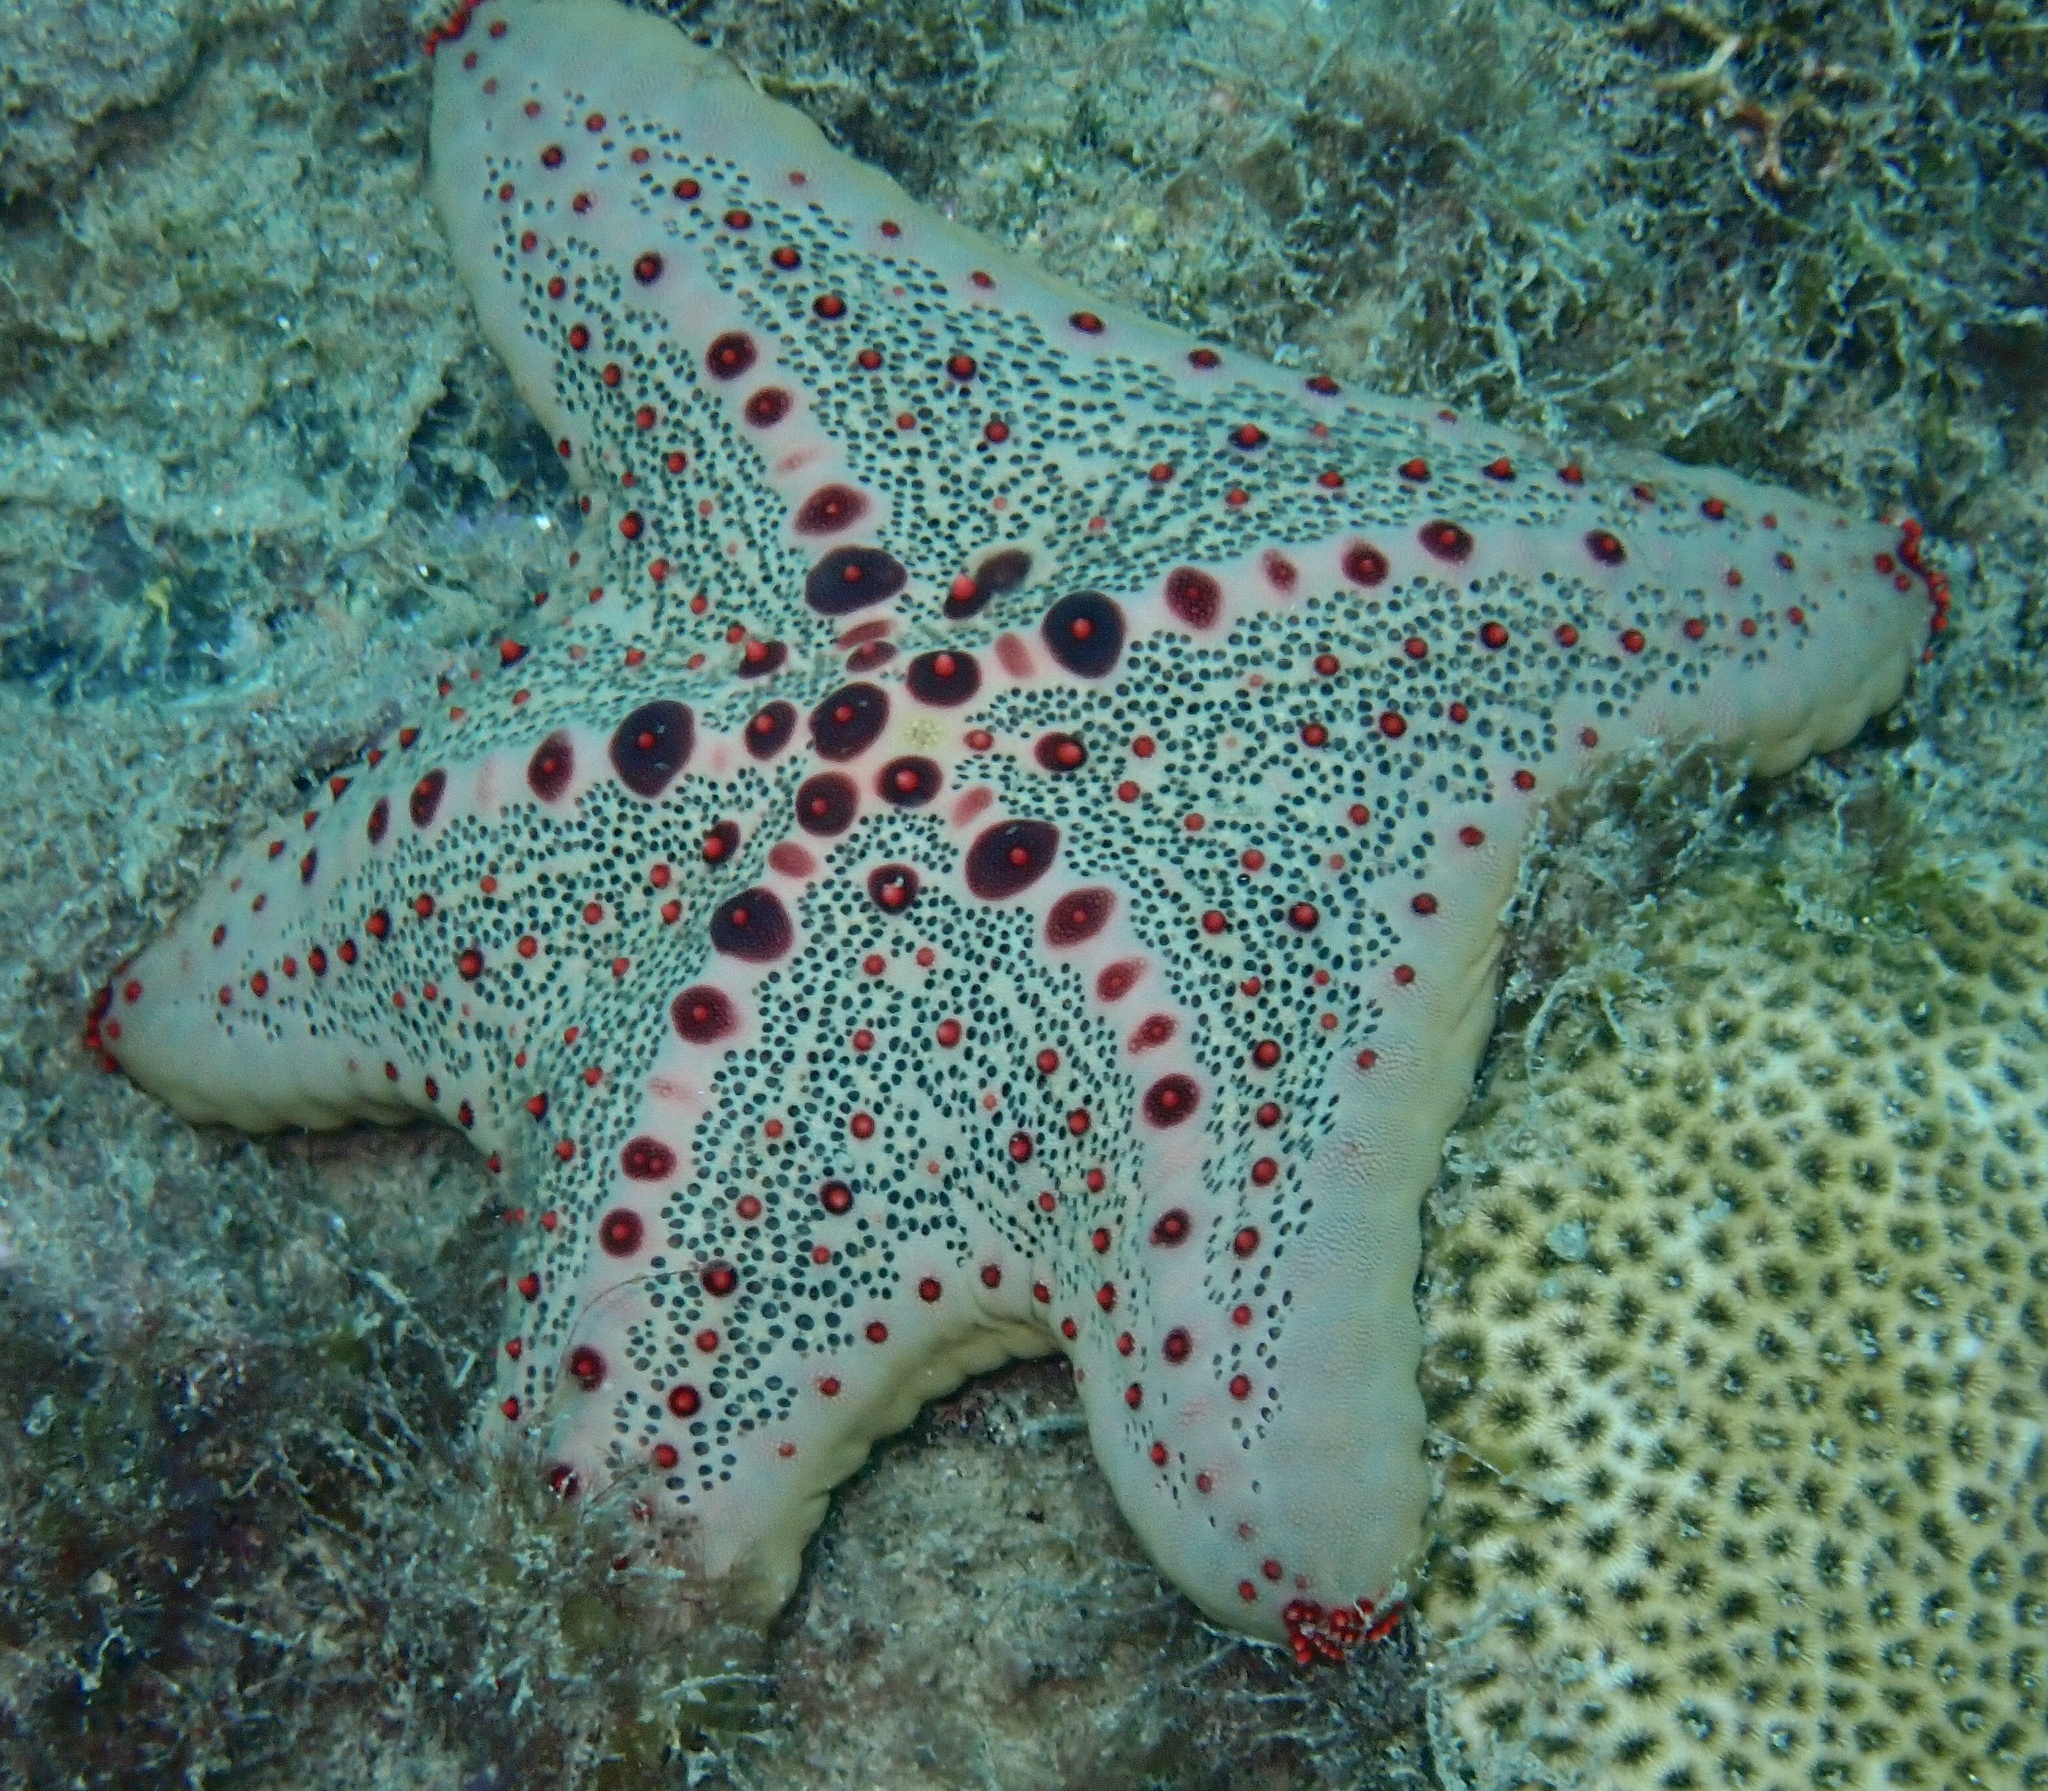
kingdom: Animalia
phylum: Echinodermata
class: Asteroidea
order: Valvatida
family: Oreasteridae
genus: Oreaster
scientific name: Oreaster clavatus
